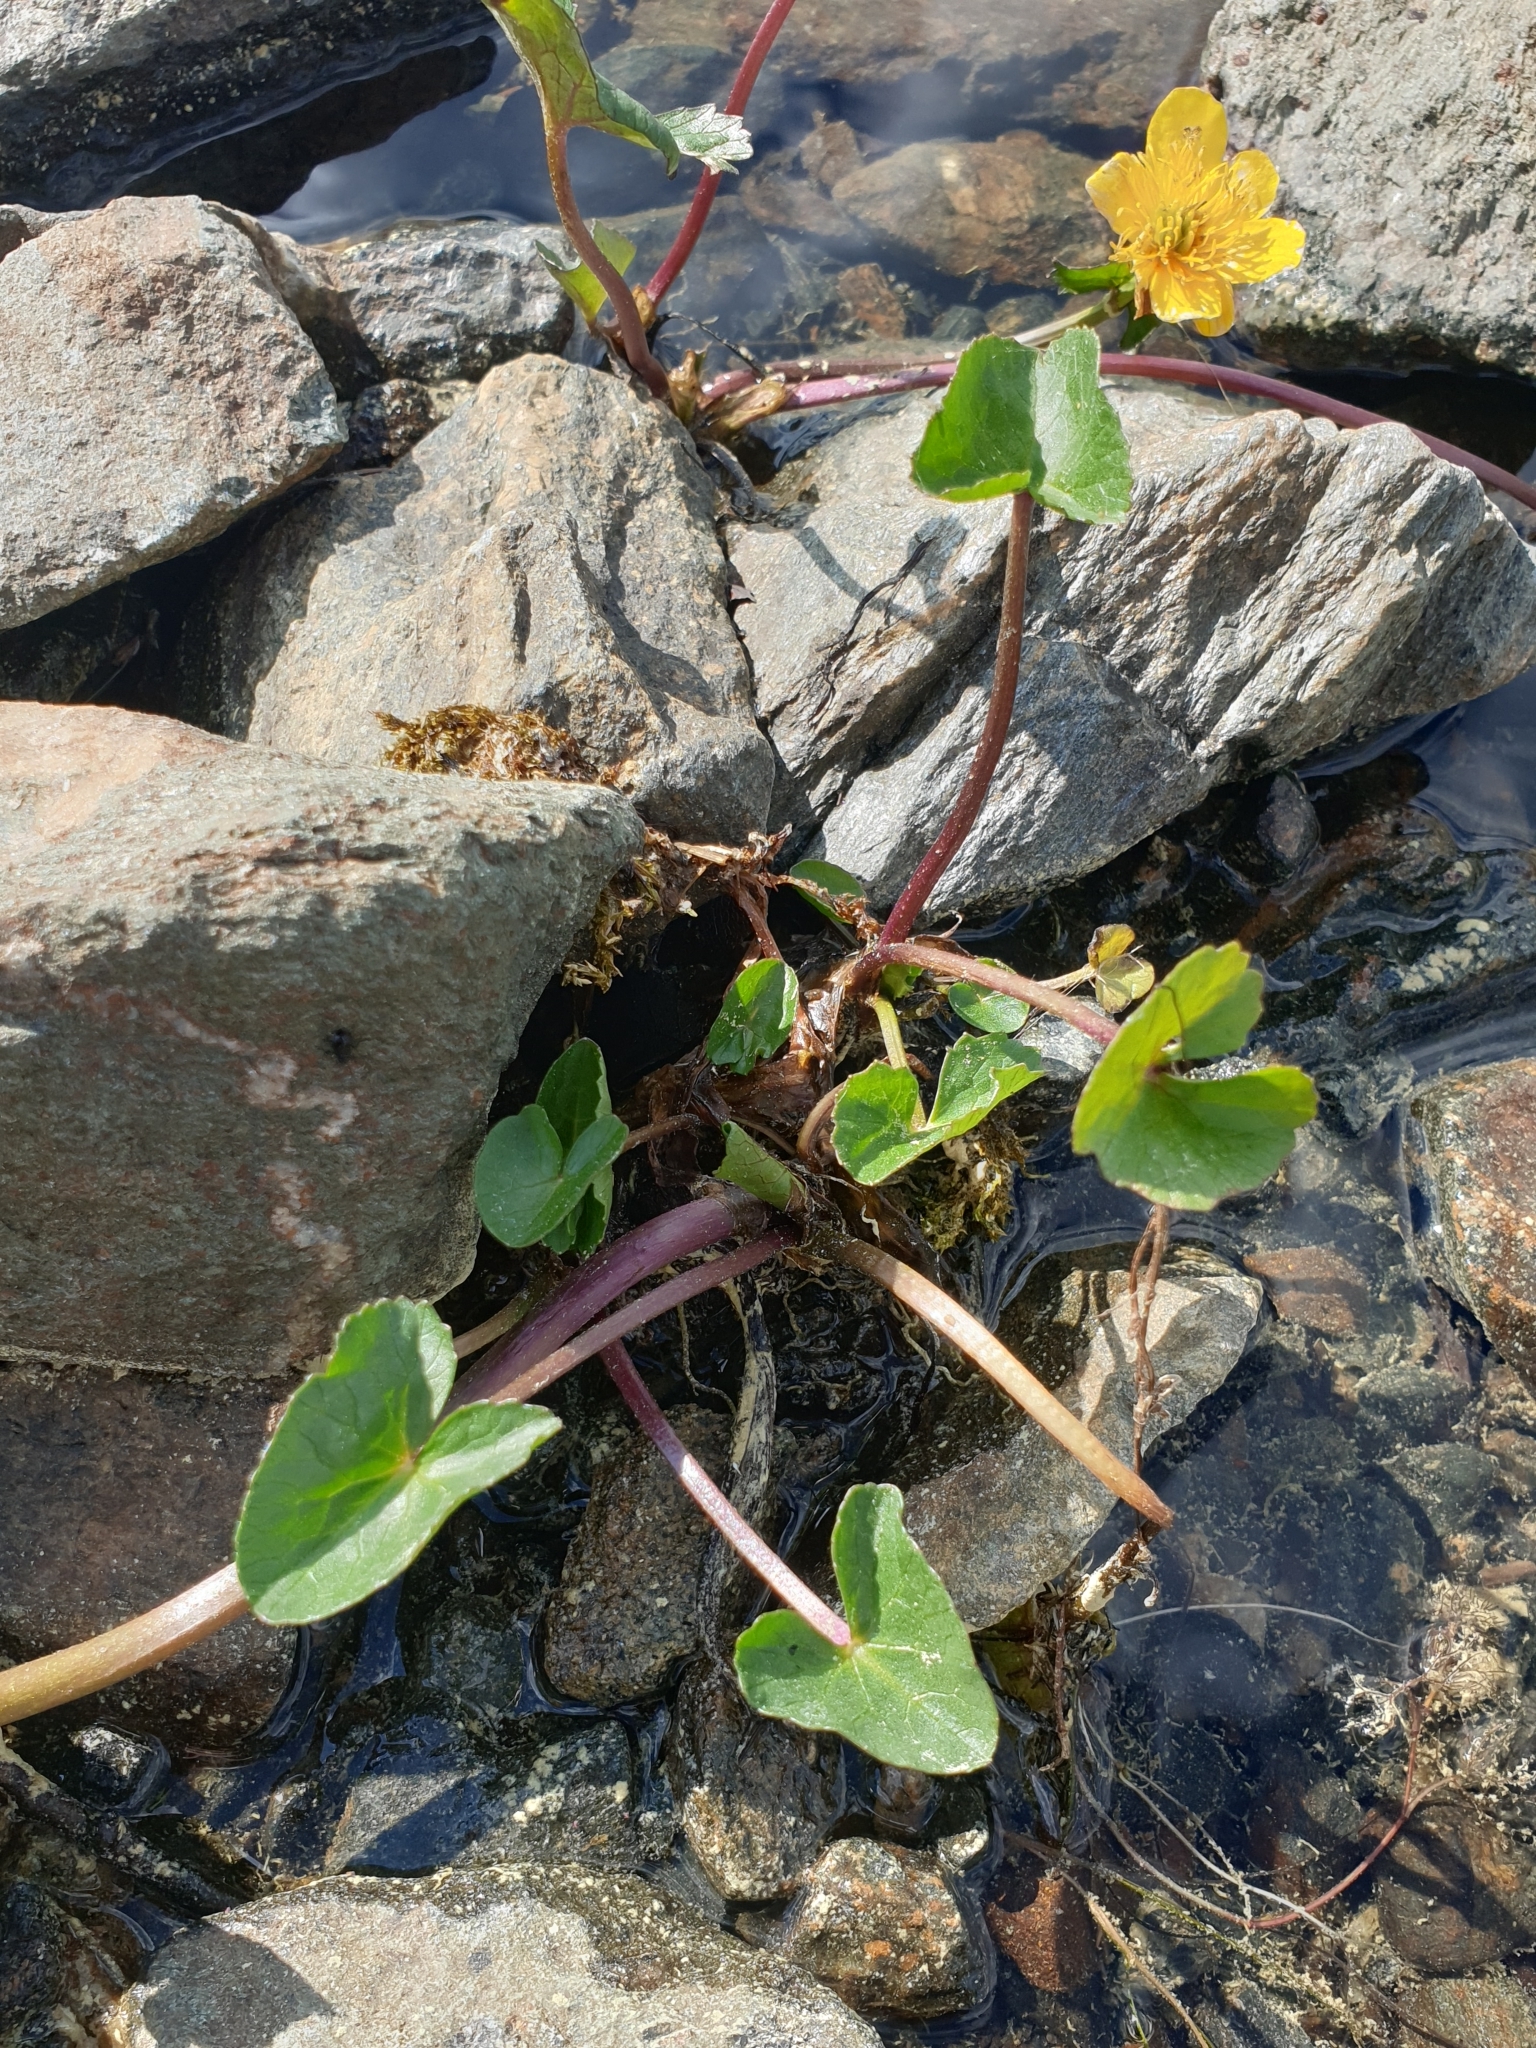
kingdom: Plantae
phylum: Tracheophyta
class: Magnoliopsida
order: Ranunculales
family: Ranunculaceae
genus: Caltha
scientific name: Caltha palustris
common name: Marsh marigold
